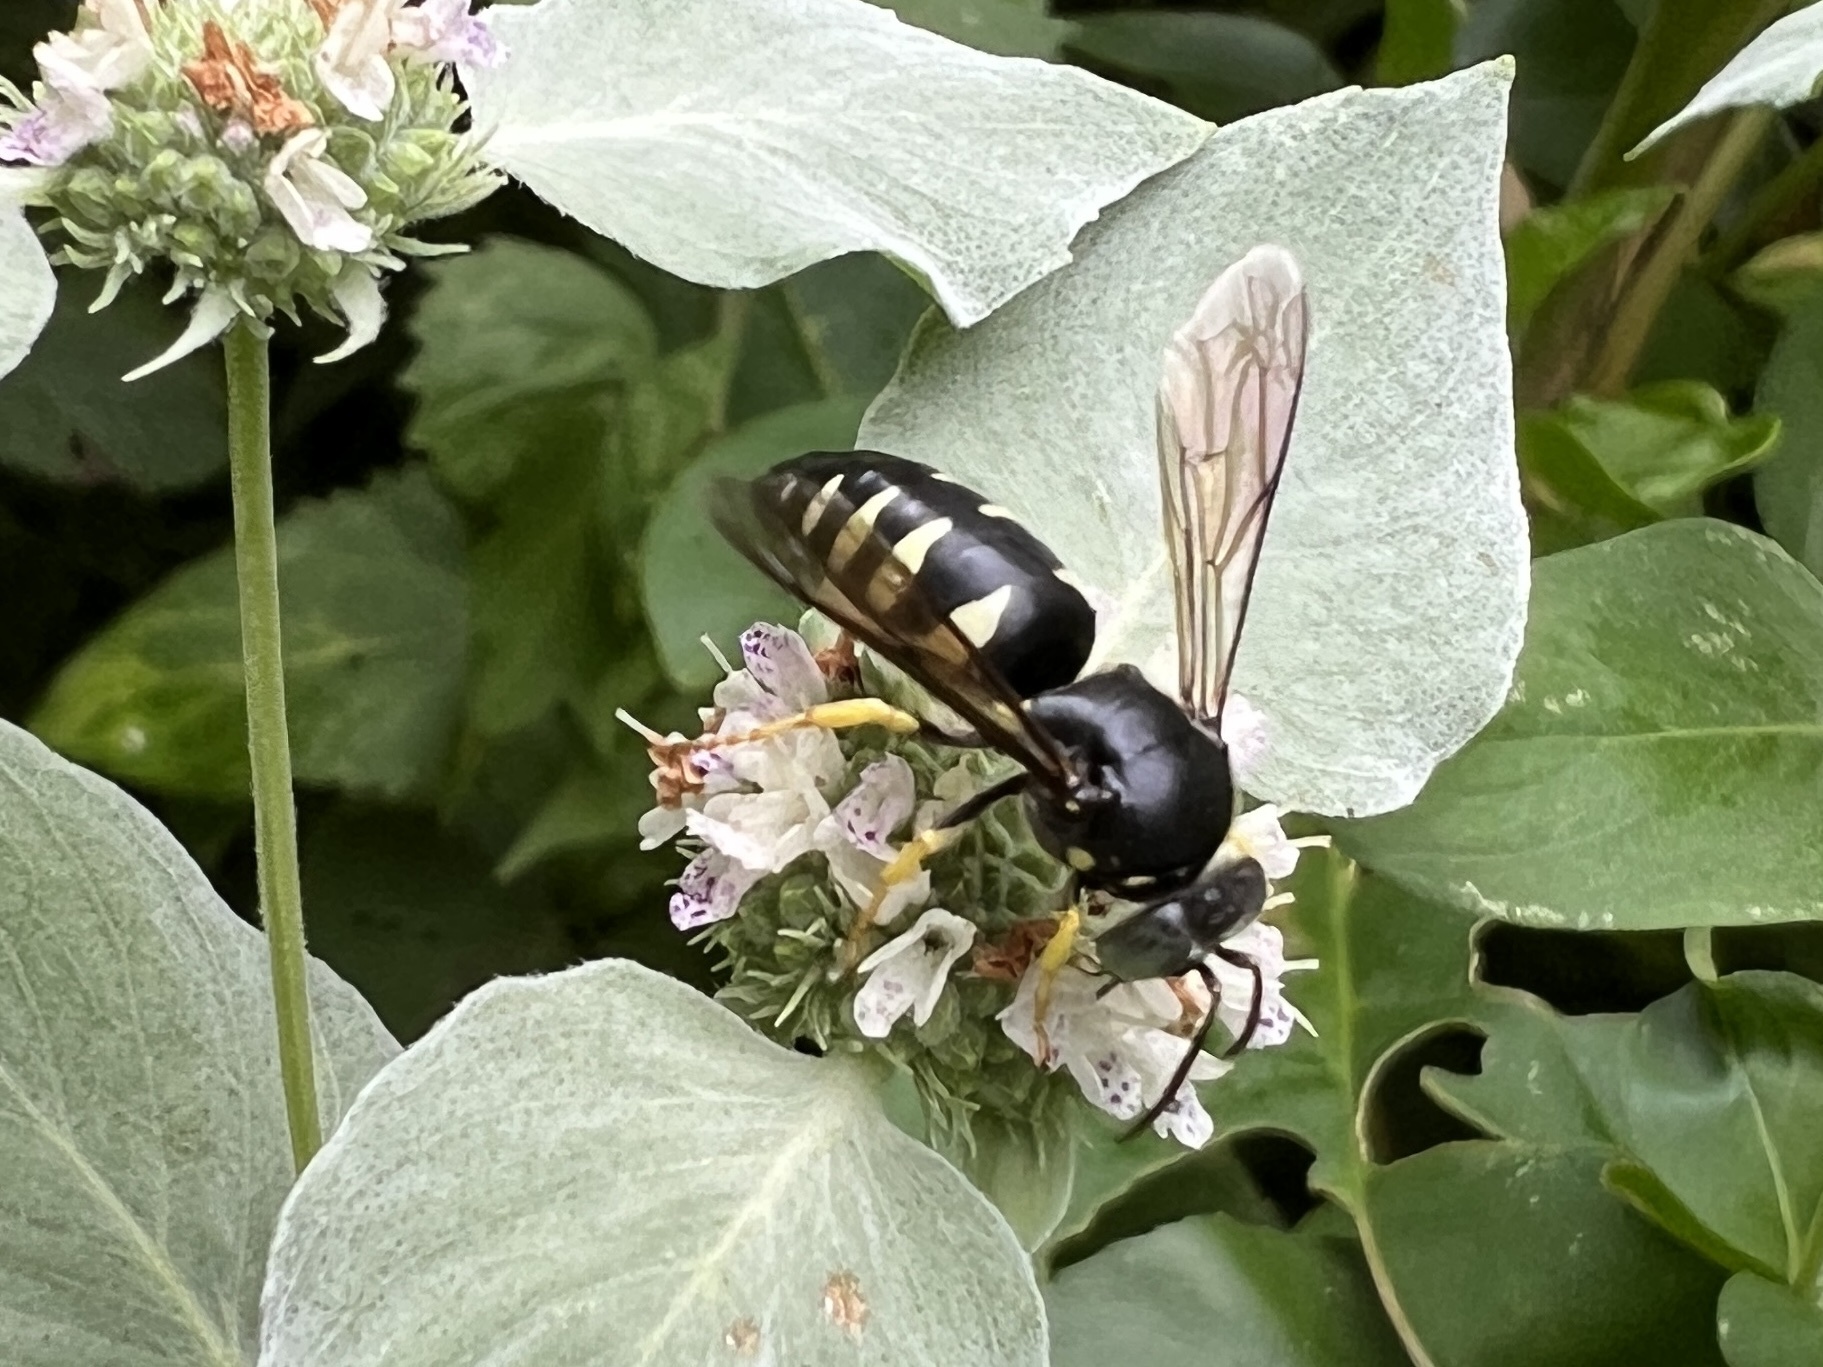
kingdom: Animalia
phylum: Arthropoda
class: Insecta
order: Hymenoptera
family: Crabronidae
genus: Bicyrtes
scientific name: Bicyrtes quadrifasciatus
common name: Four-banded stink bug hunter wasp
